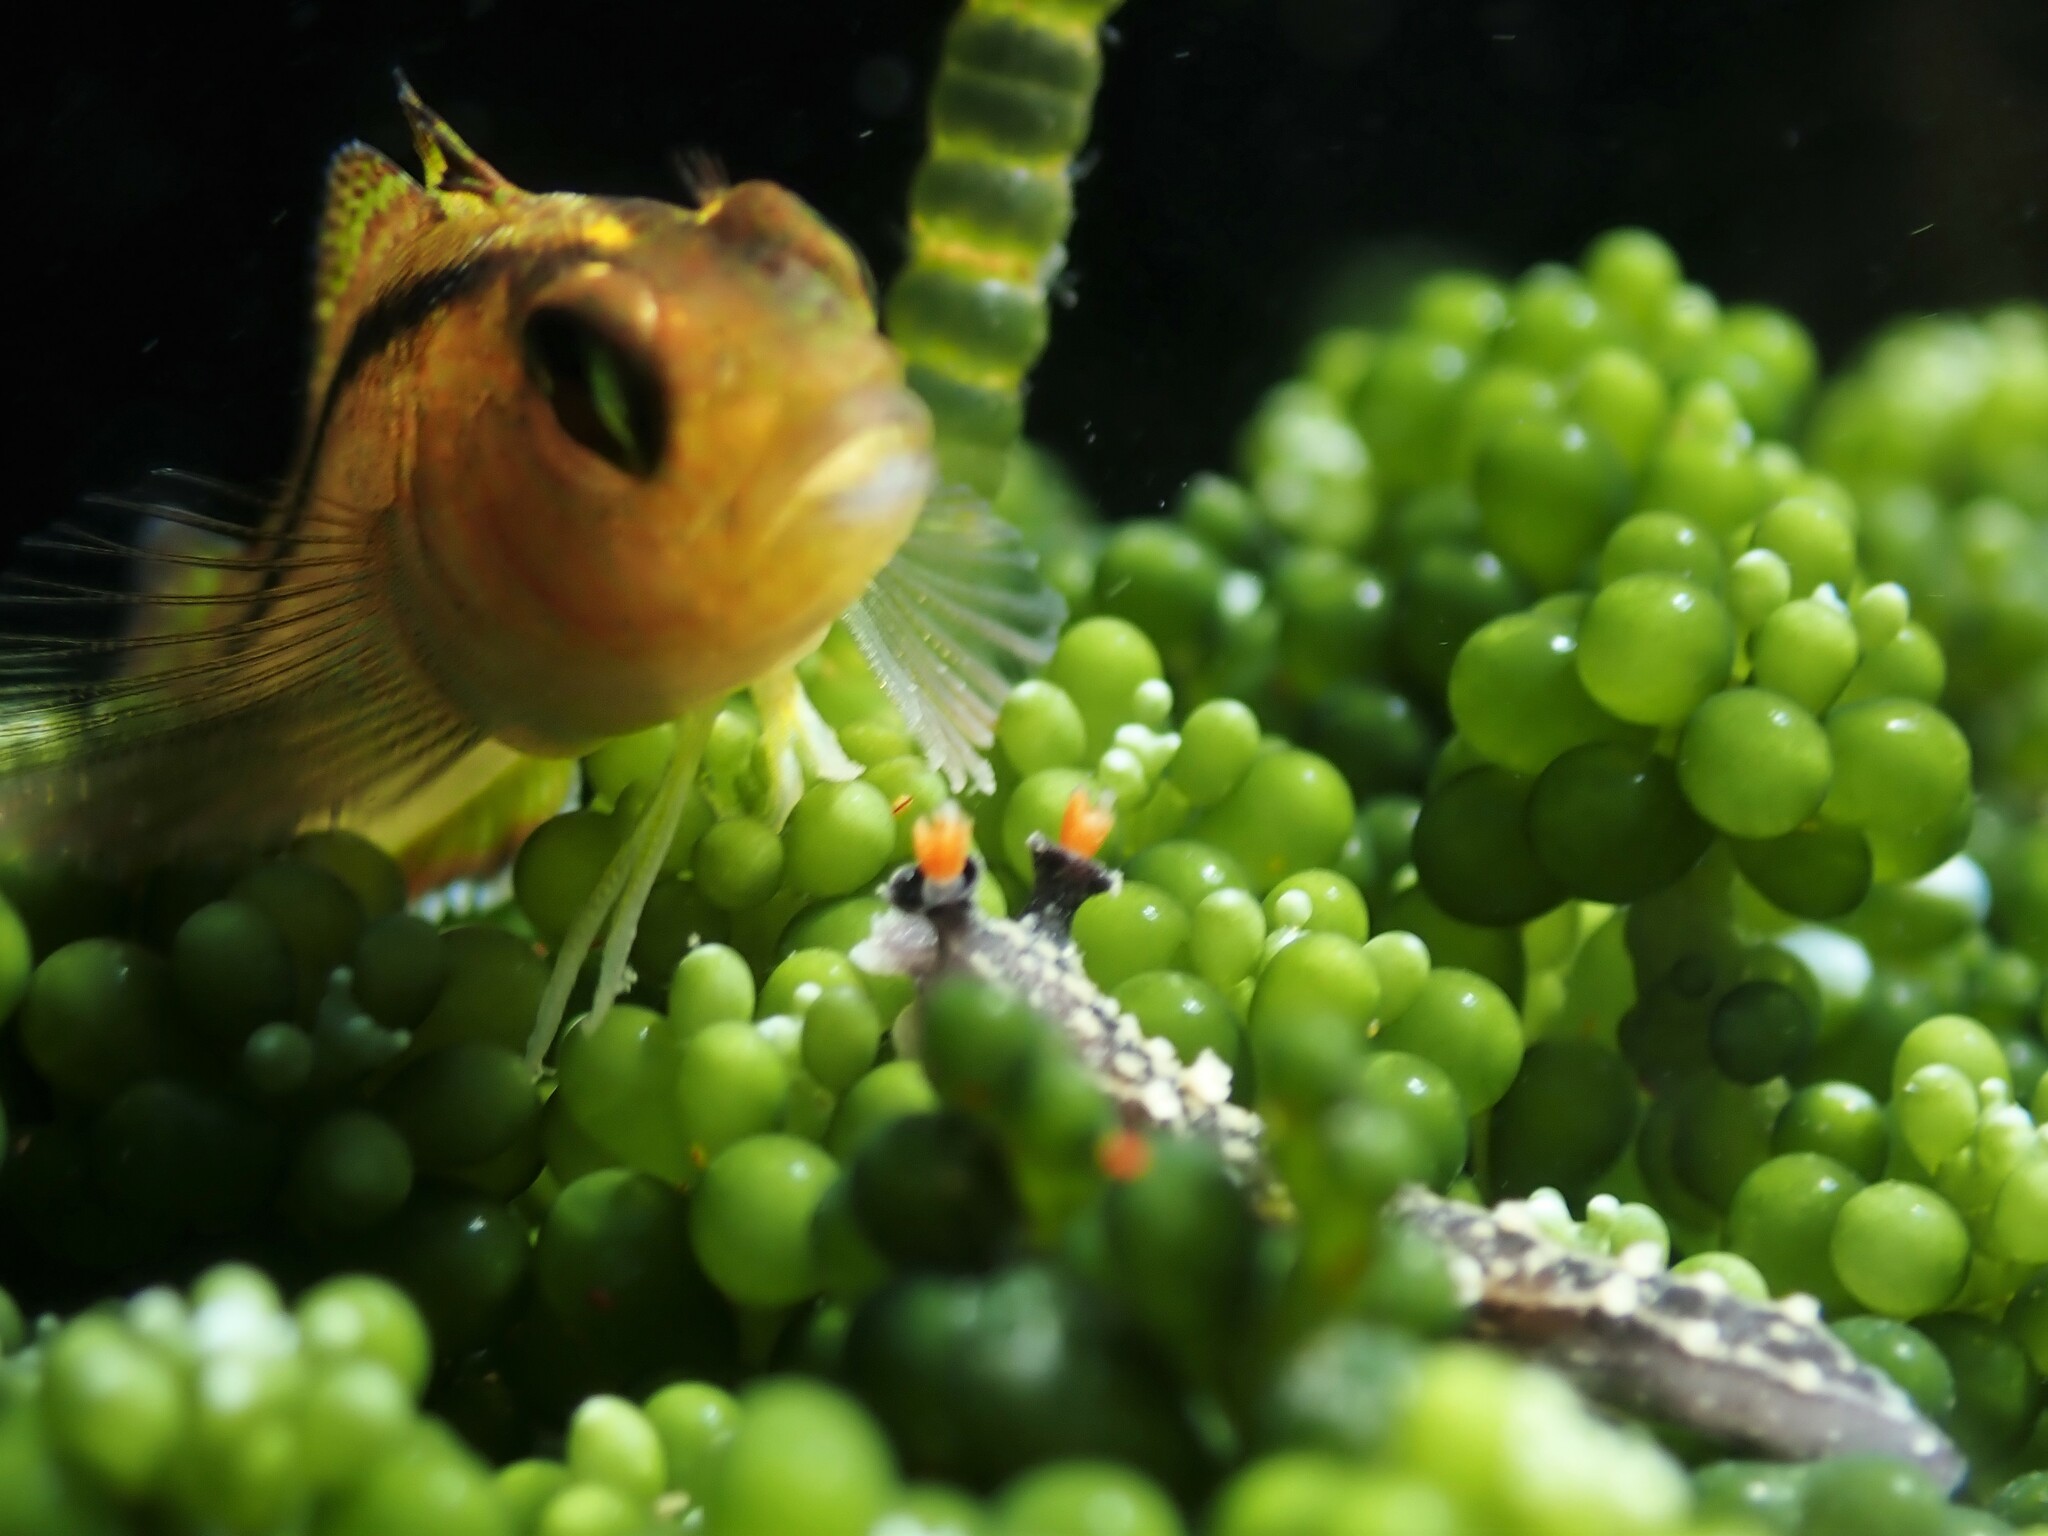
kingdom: Animalia
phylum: Mollusca
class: Gastropoda
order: Nudibranchia
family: Tritoniidae
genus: Tritonia
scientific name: Tritonia flemingi
